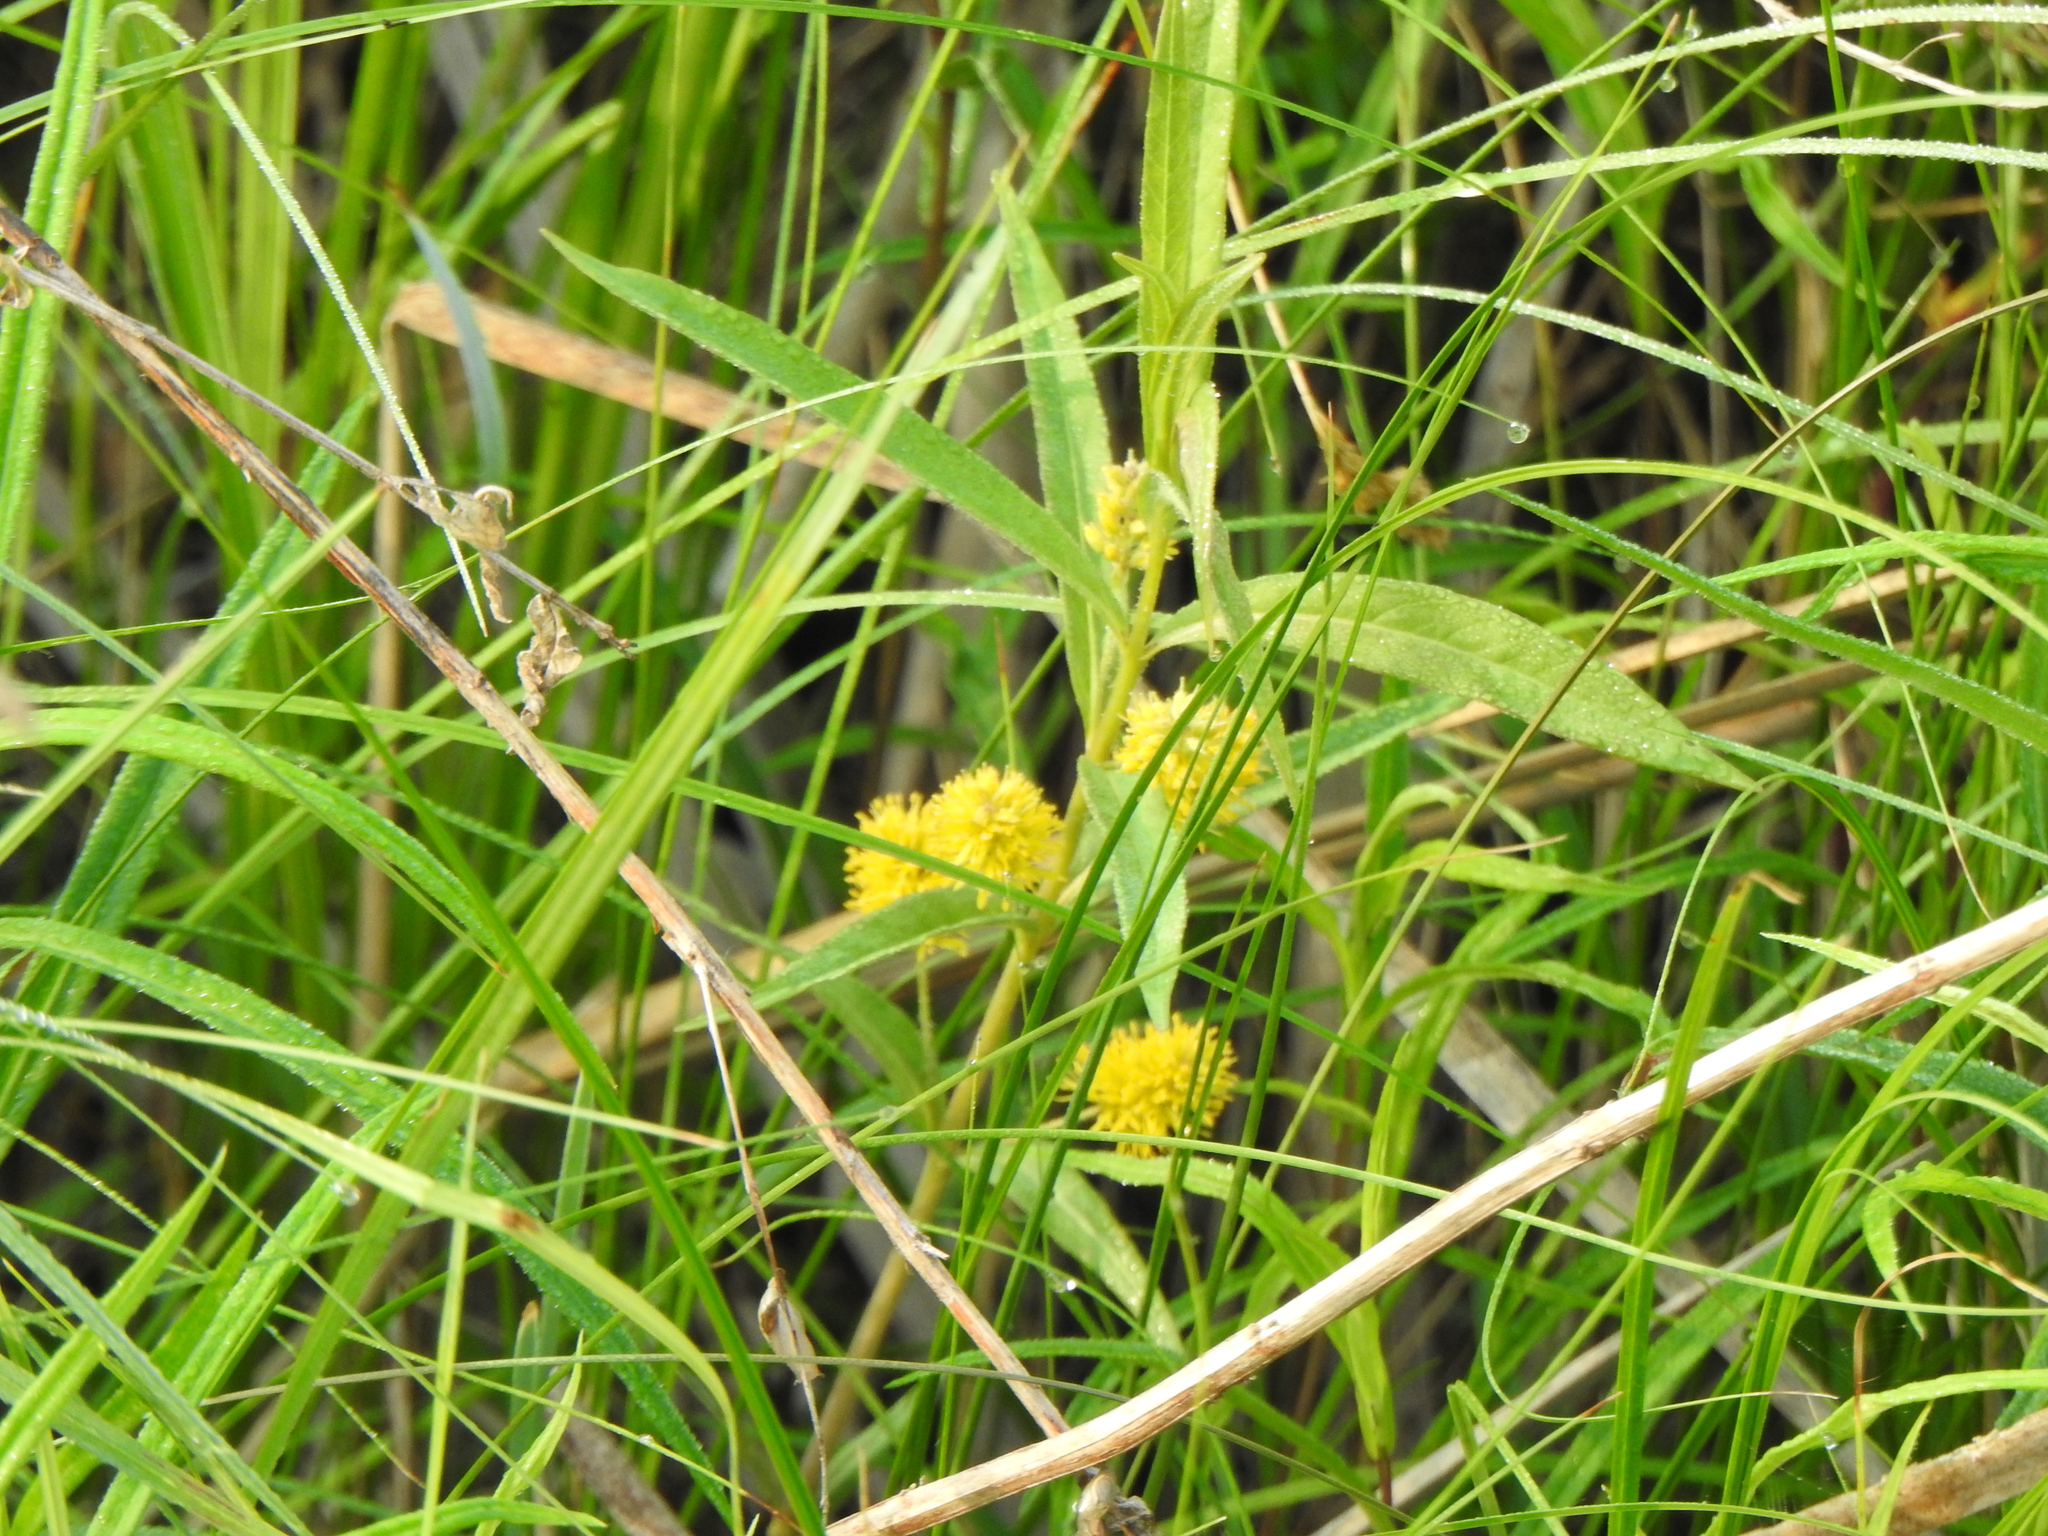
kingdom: Plantae
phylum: Tracheophyta
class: Magnoliopsida
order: Ericales
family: Primulaceae
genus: Lysimachia
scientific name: Lysimachia thyrsiflora
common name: Tufted loosestrife
